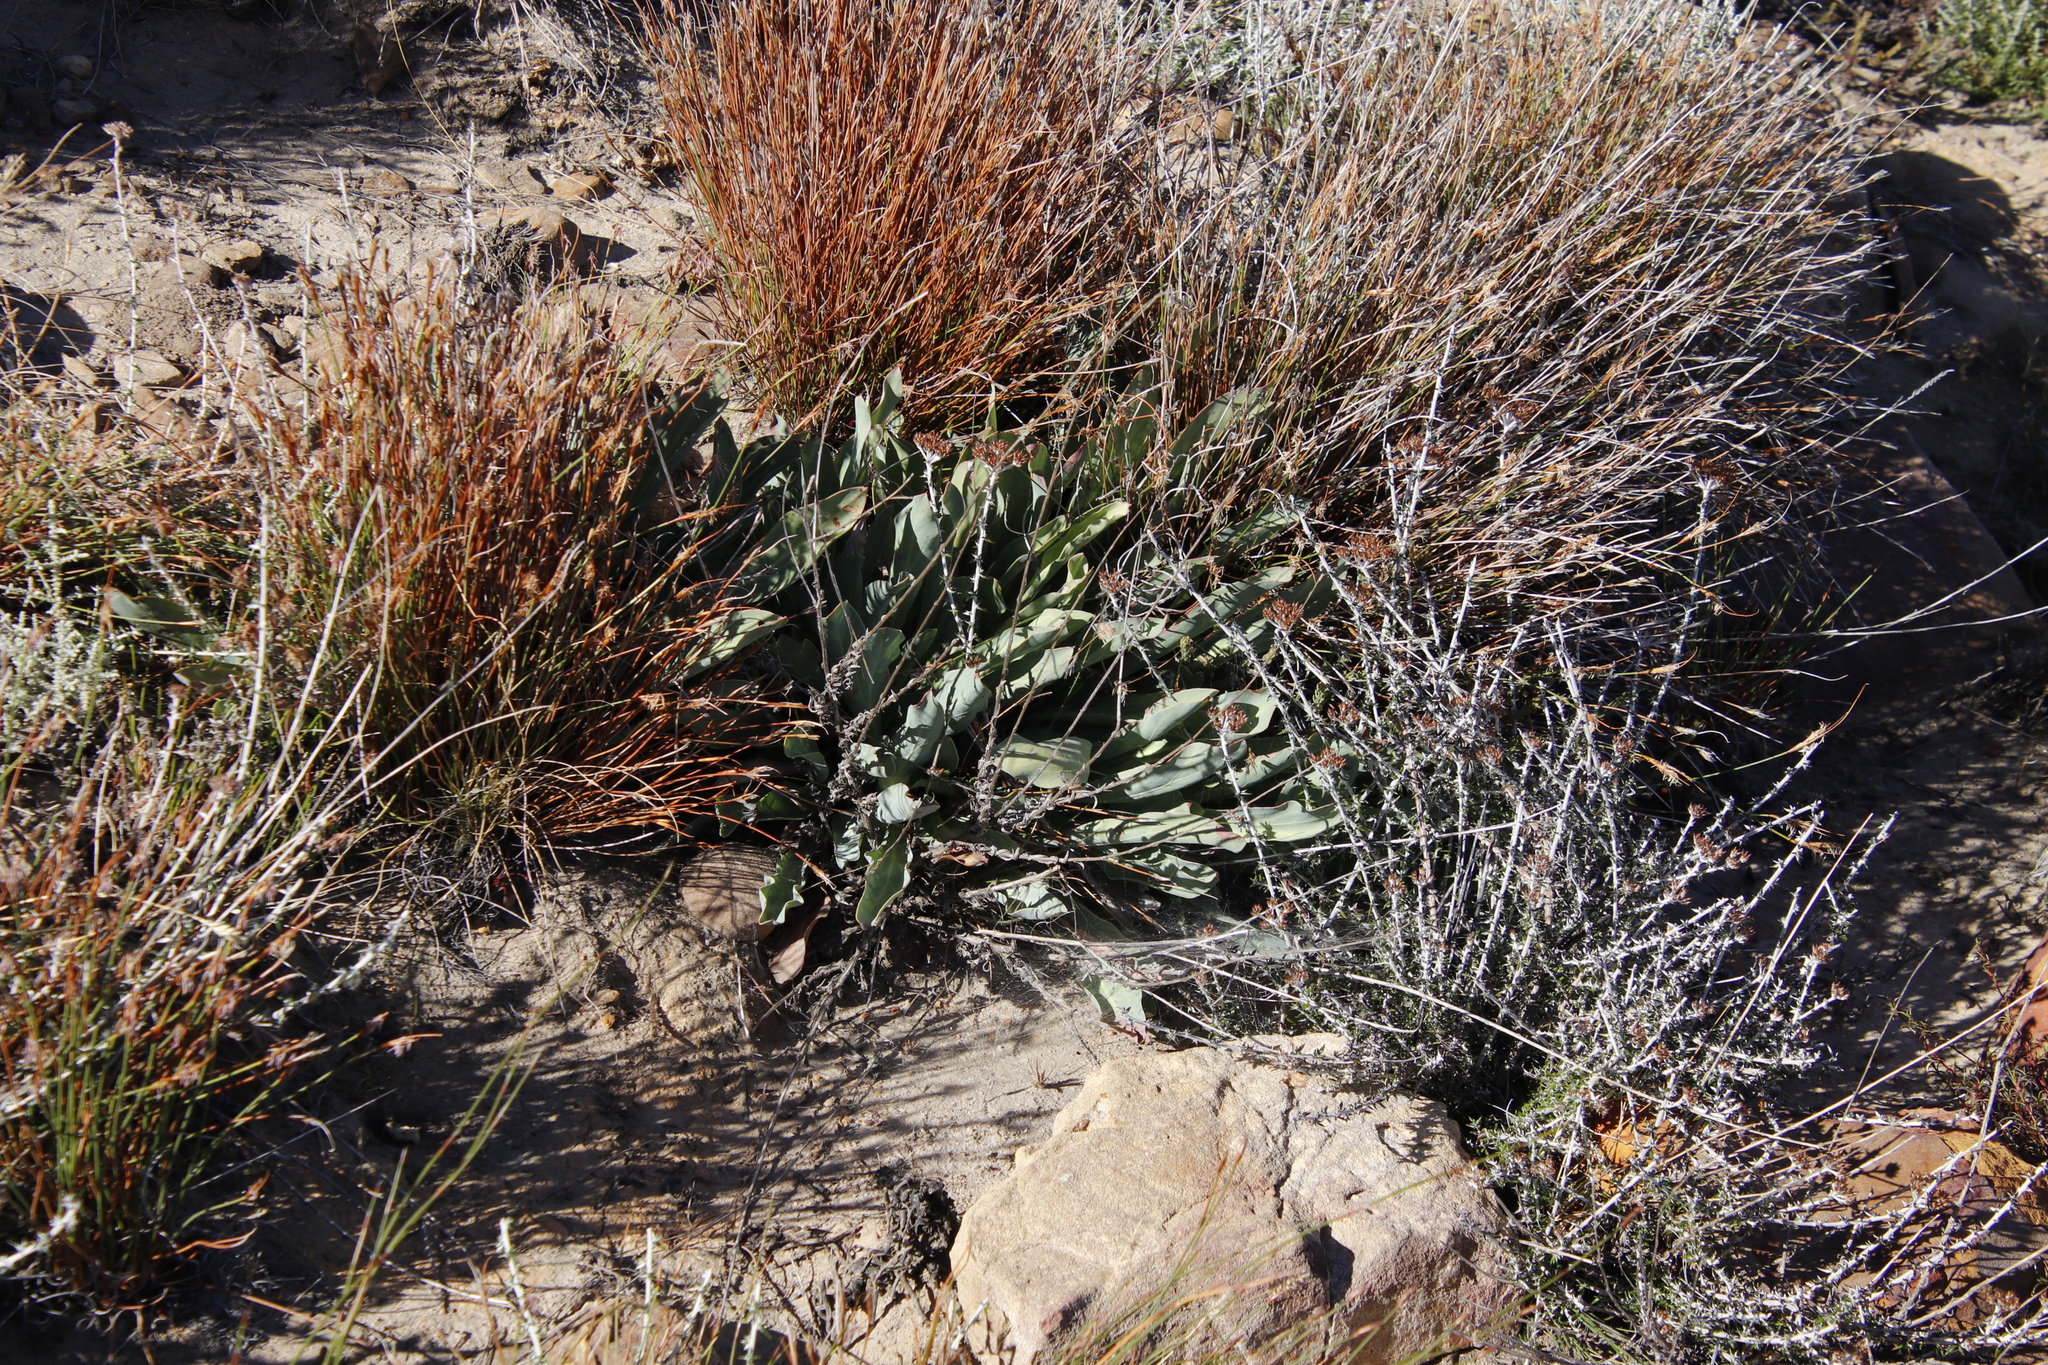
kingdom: Plantae
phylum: Tracheophyta
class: Magnoliopsida
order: Proteales
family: Proteaceae
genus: Protea
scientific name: Protea laevis
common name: Smooth-leaf sugarbush
